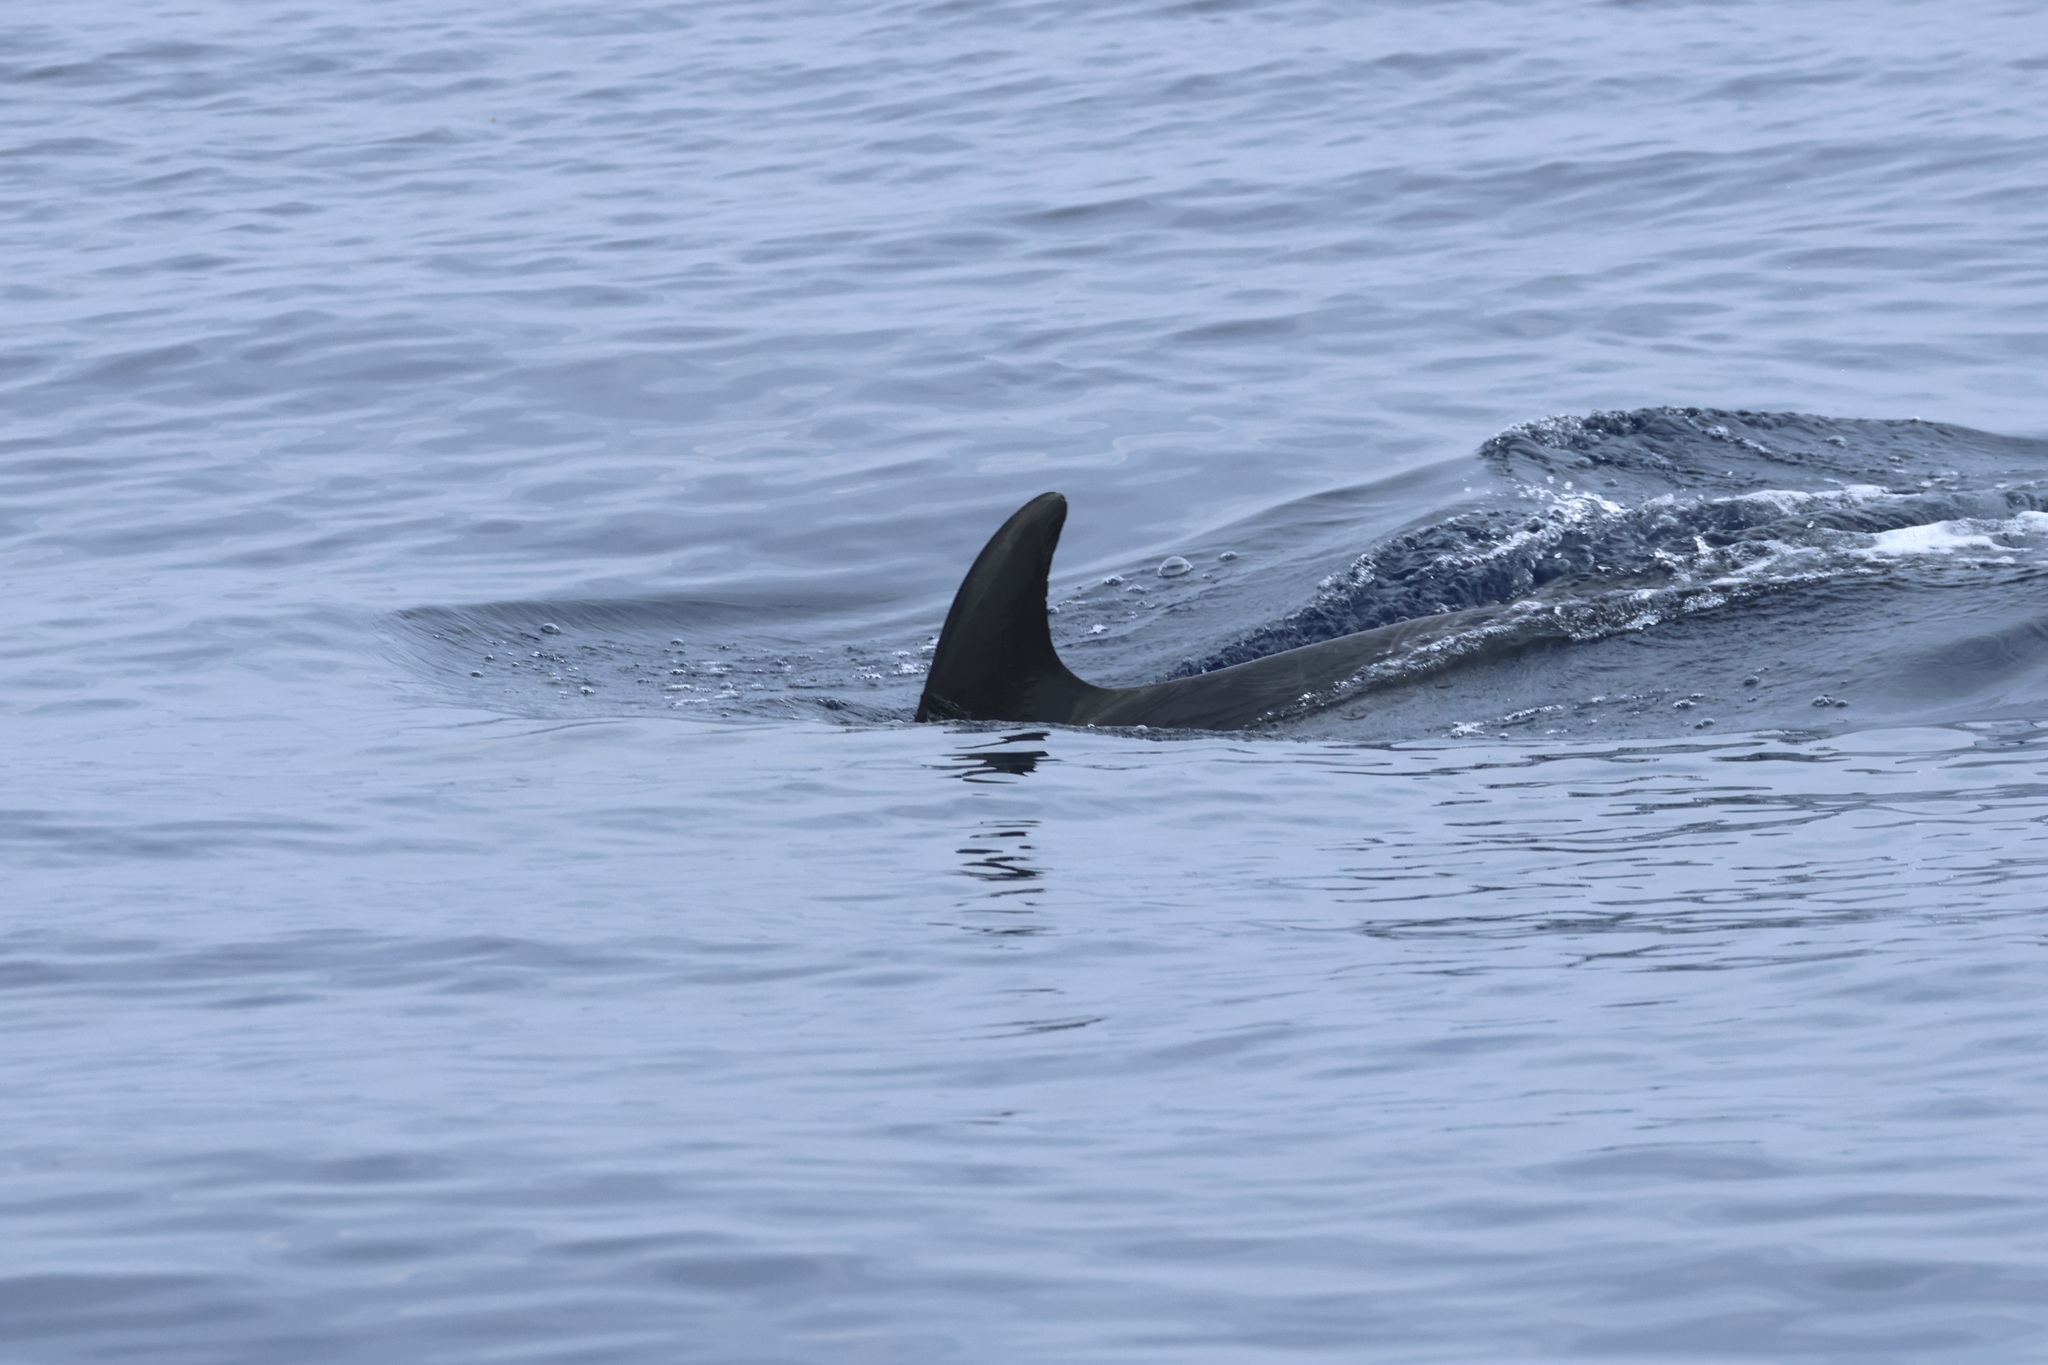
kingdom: Animalia
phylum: Chordata
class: Mammalia
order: Cetacea
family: Delphinidae
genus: Tursiops
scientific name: Tursiops truncatus
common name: Bottlenose dolphin
